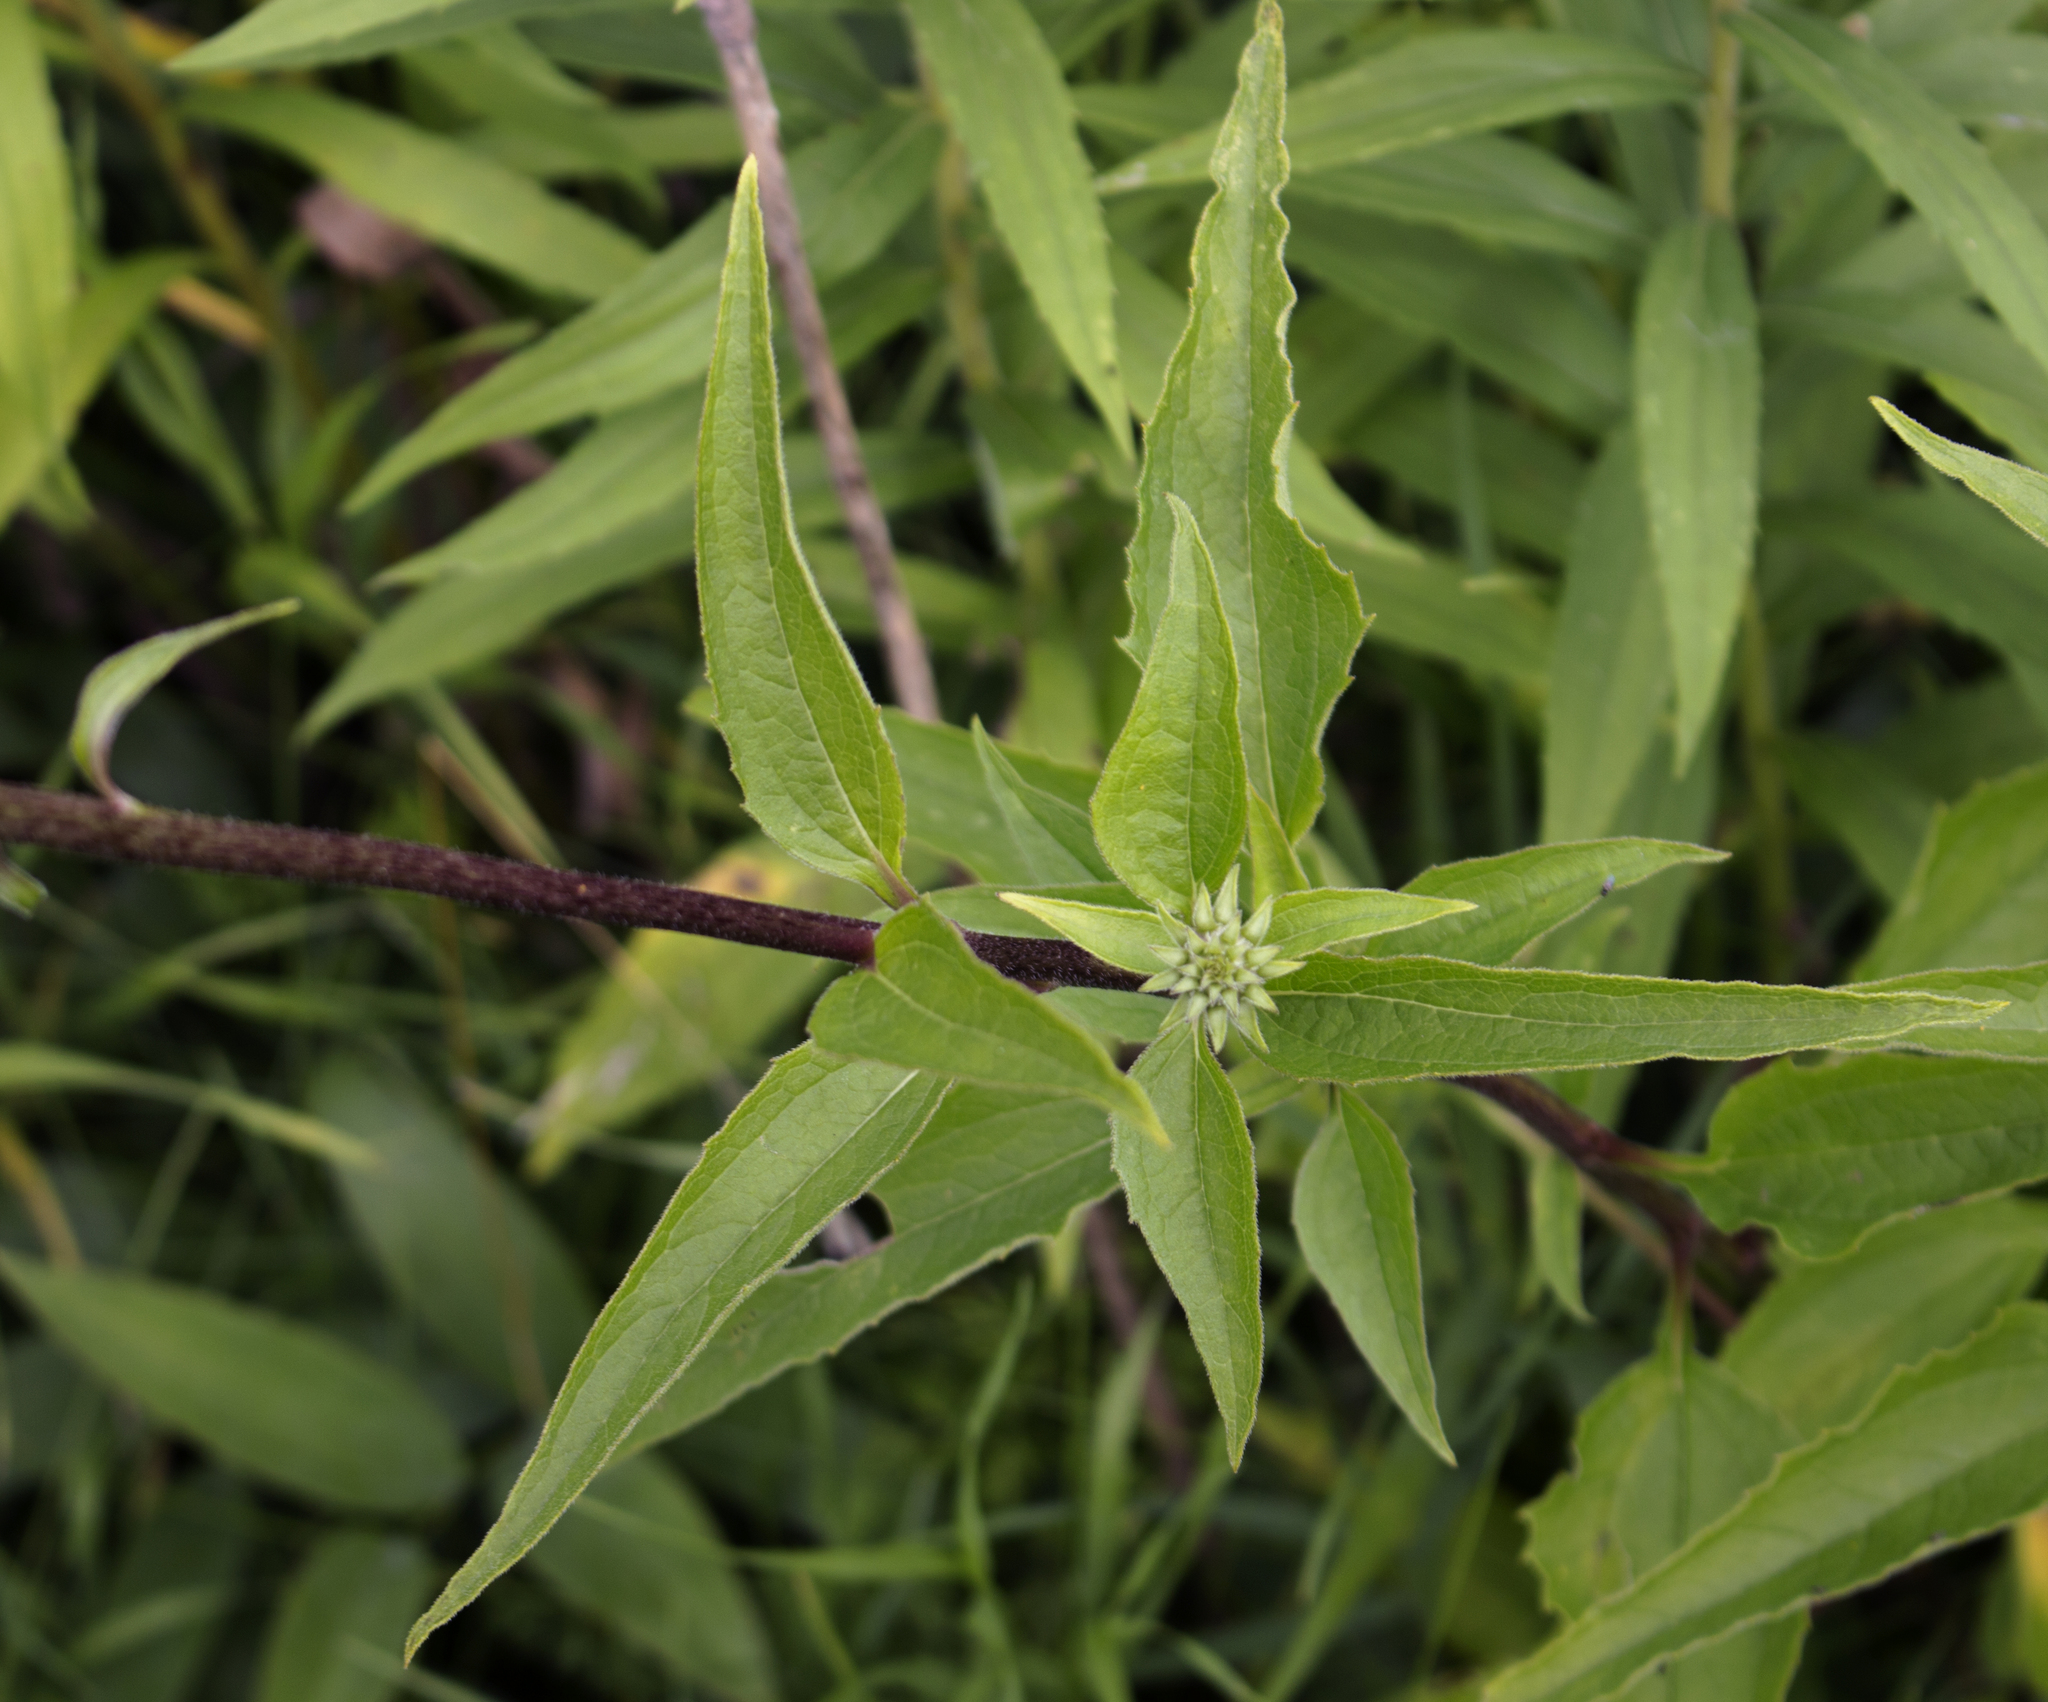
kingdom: Plantae
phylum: Tracheophyta
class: Magnoliopsida
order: Asterales
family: Asteraceae
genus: Echinacea
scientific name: Echinacea purpurea
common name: Broad-leaved purple coneflower
